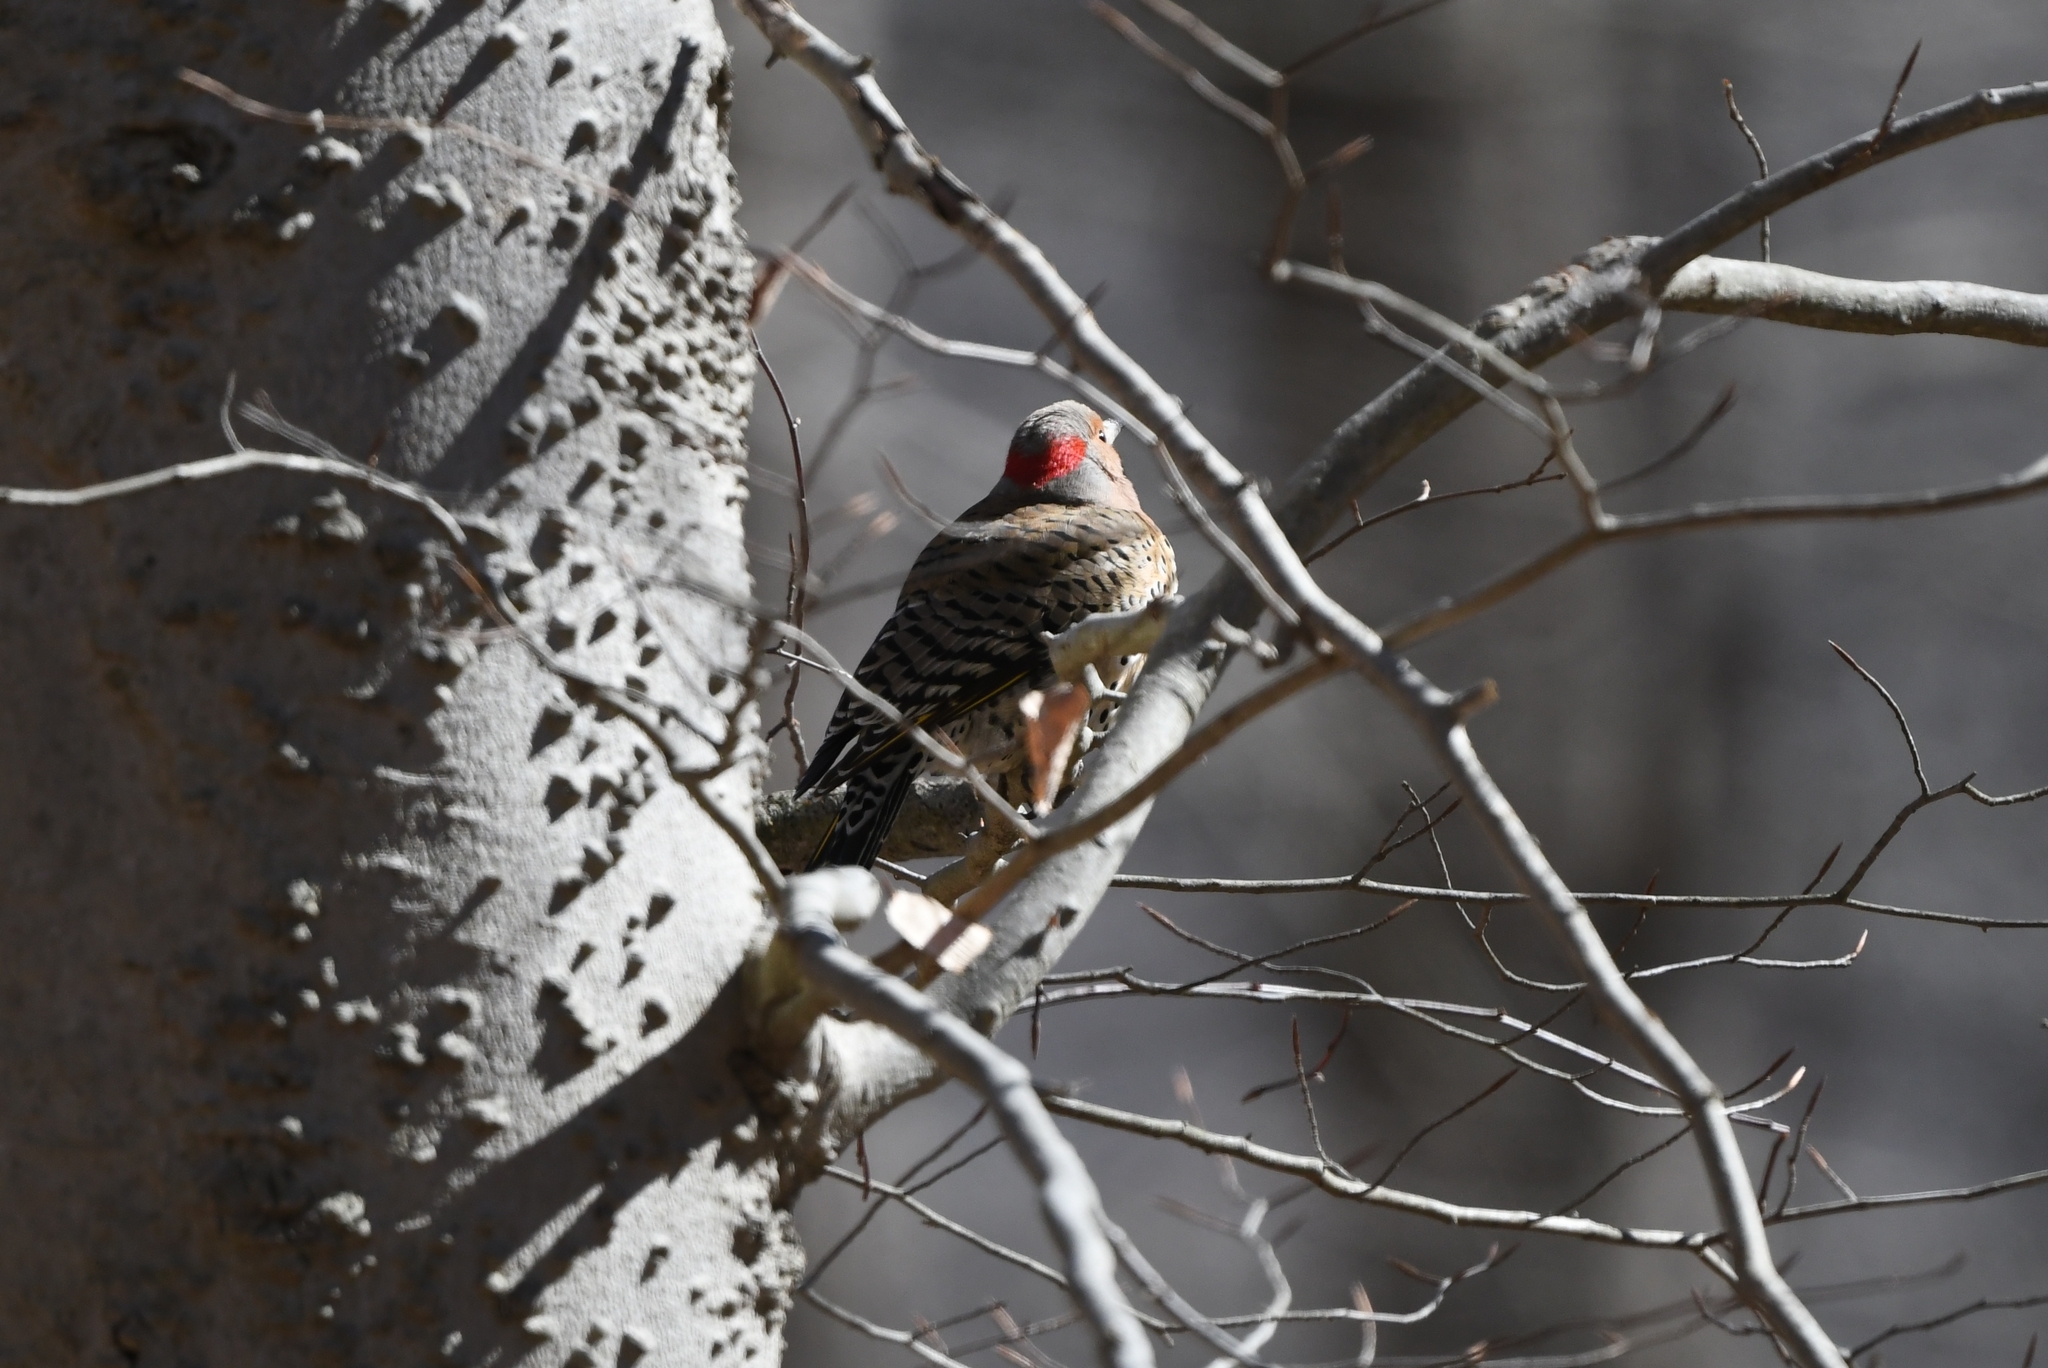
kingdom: Animalia
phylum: Chordata
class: Aves
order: Piciformes
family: Picidae
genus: Colaptes
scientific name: Colaptes auratus
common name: Northern flicker
